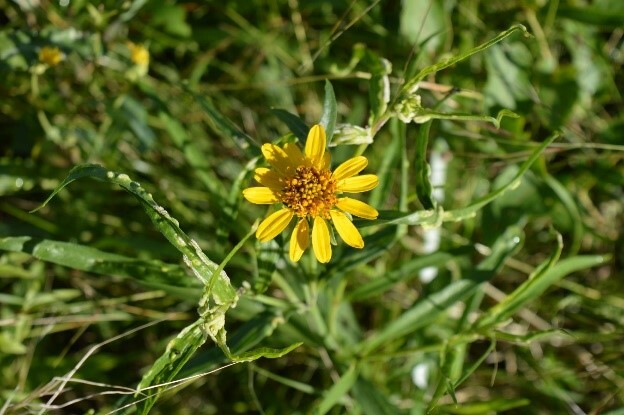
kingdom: Plantae
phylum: Tracheophyta
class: Magnoliopsida
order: Asterales
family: Asteraceae
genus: Pascalia
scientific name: Pascalia glauca
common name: Beach creeping oxeye
